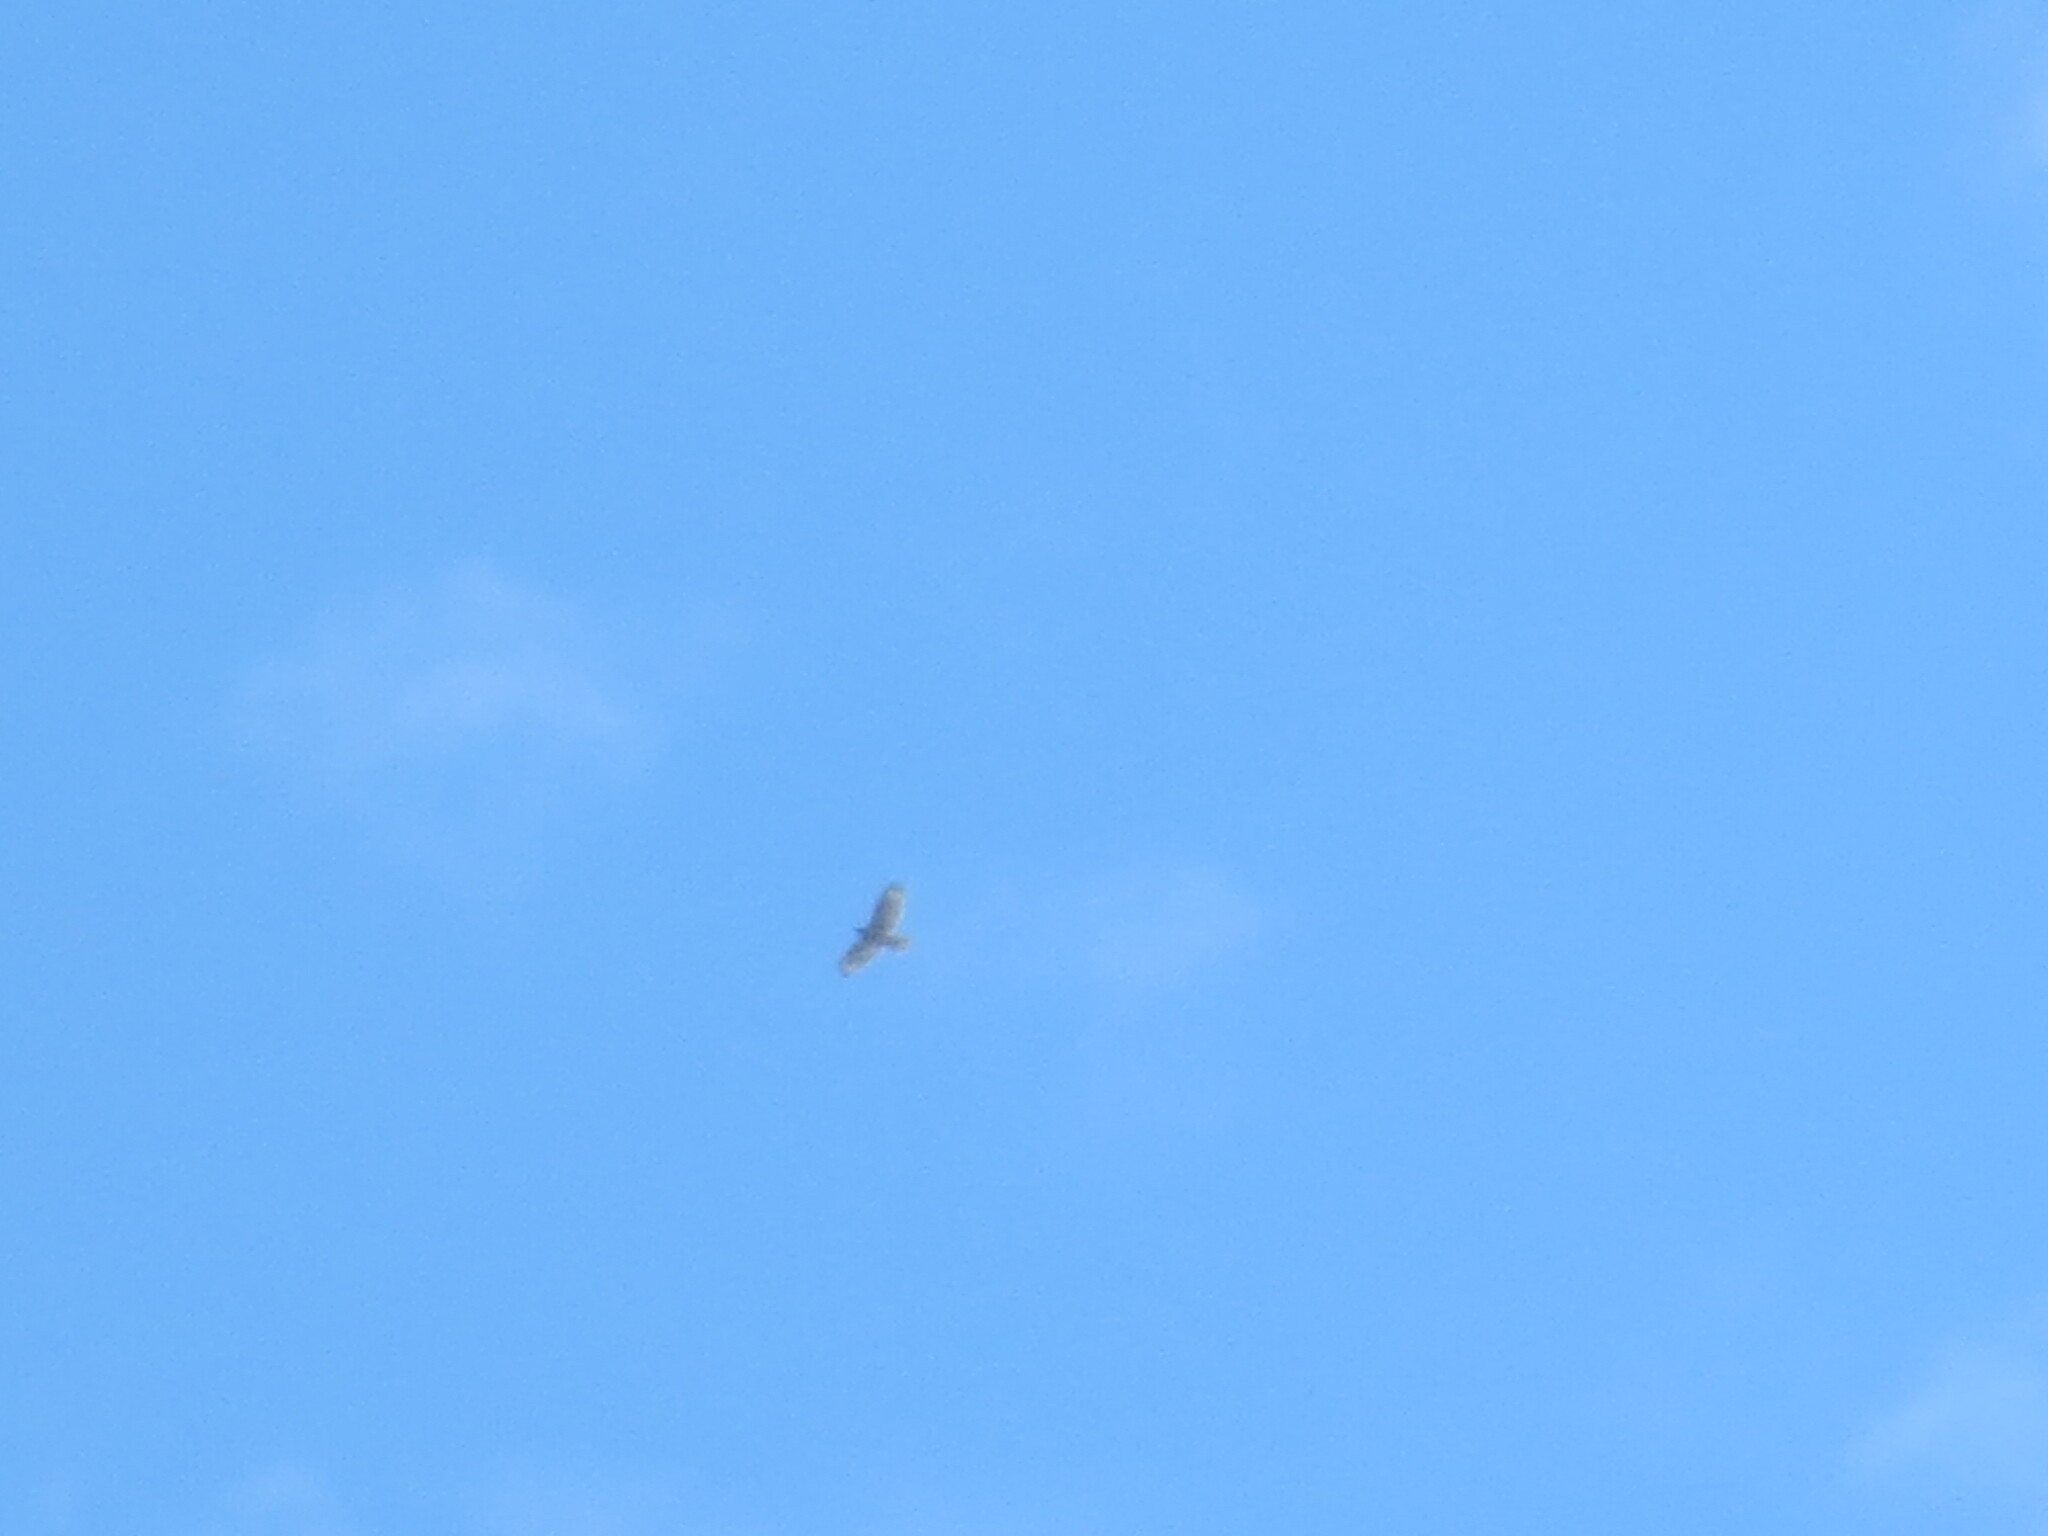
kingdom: Animalia
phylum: Chordata
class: Aves
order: Accipitriformes
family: Accipitridae
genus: Buteo
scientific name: Buteo lineatus
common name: Red-shouldered hawk
